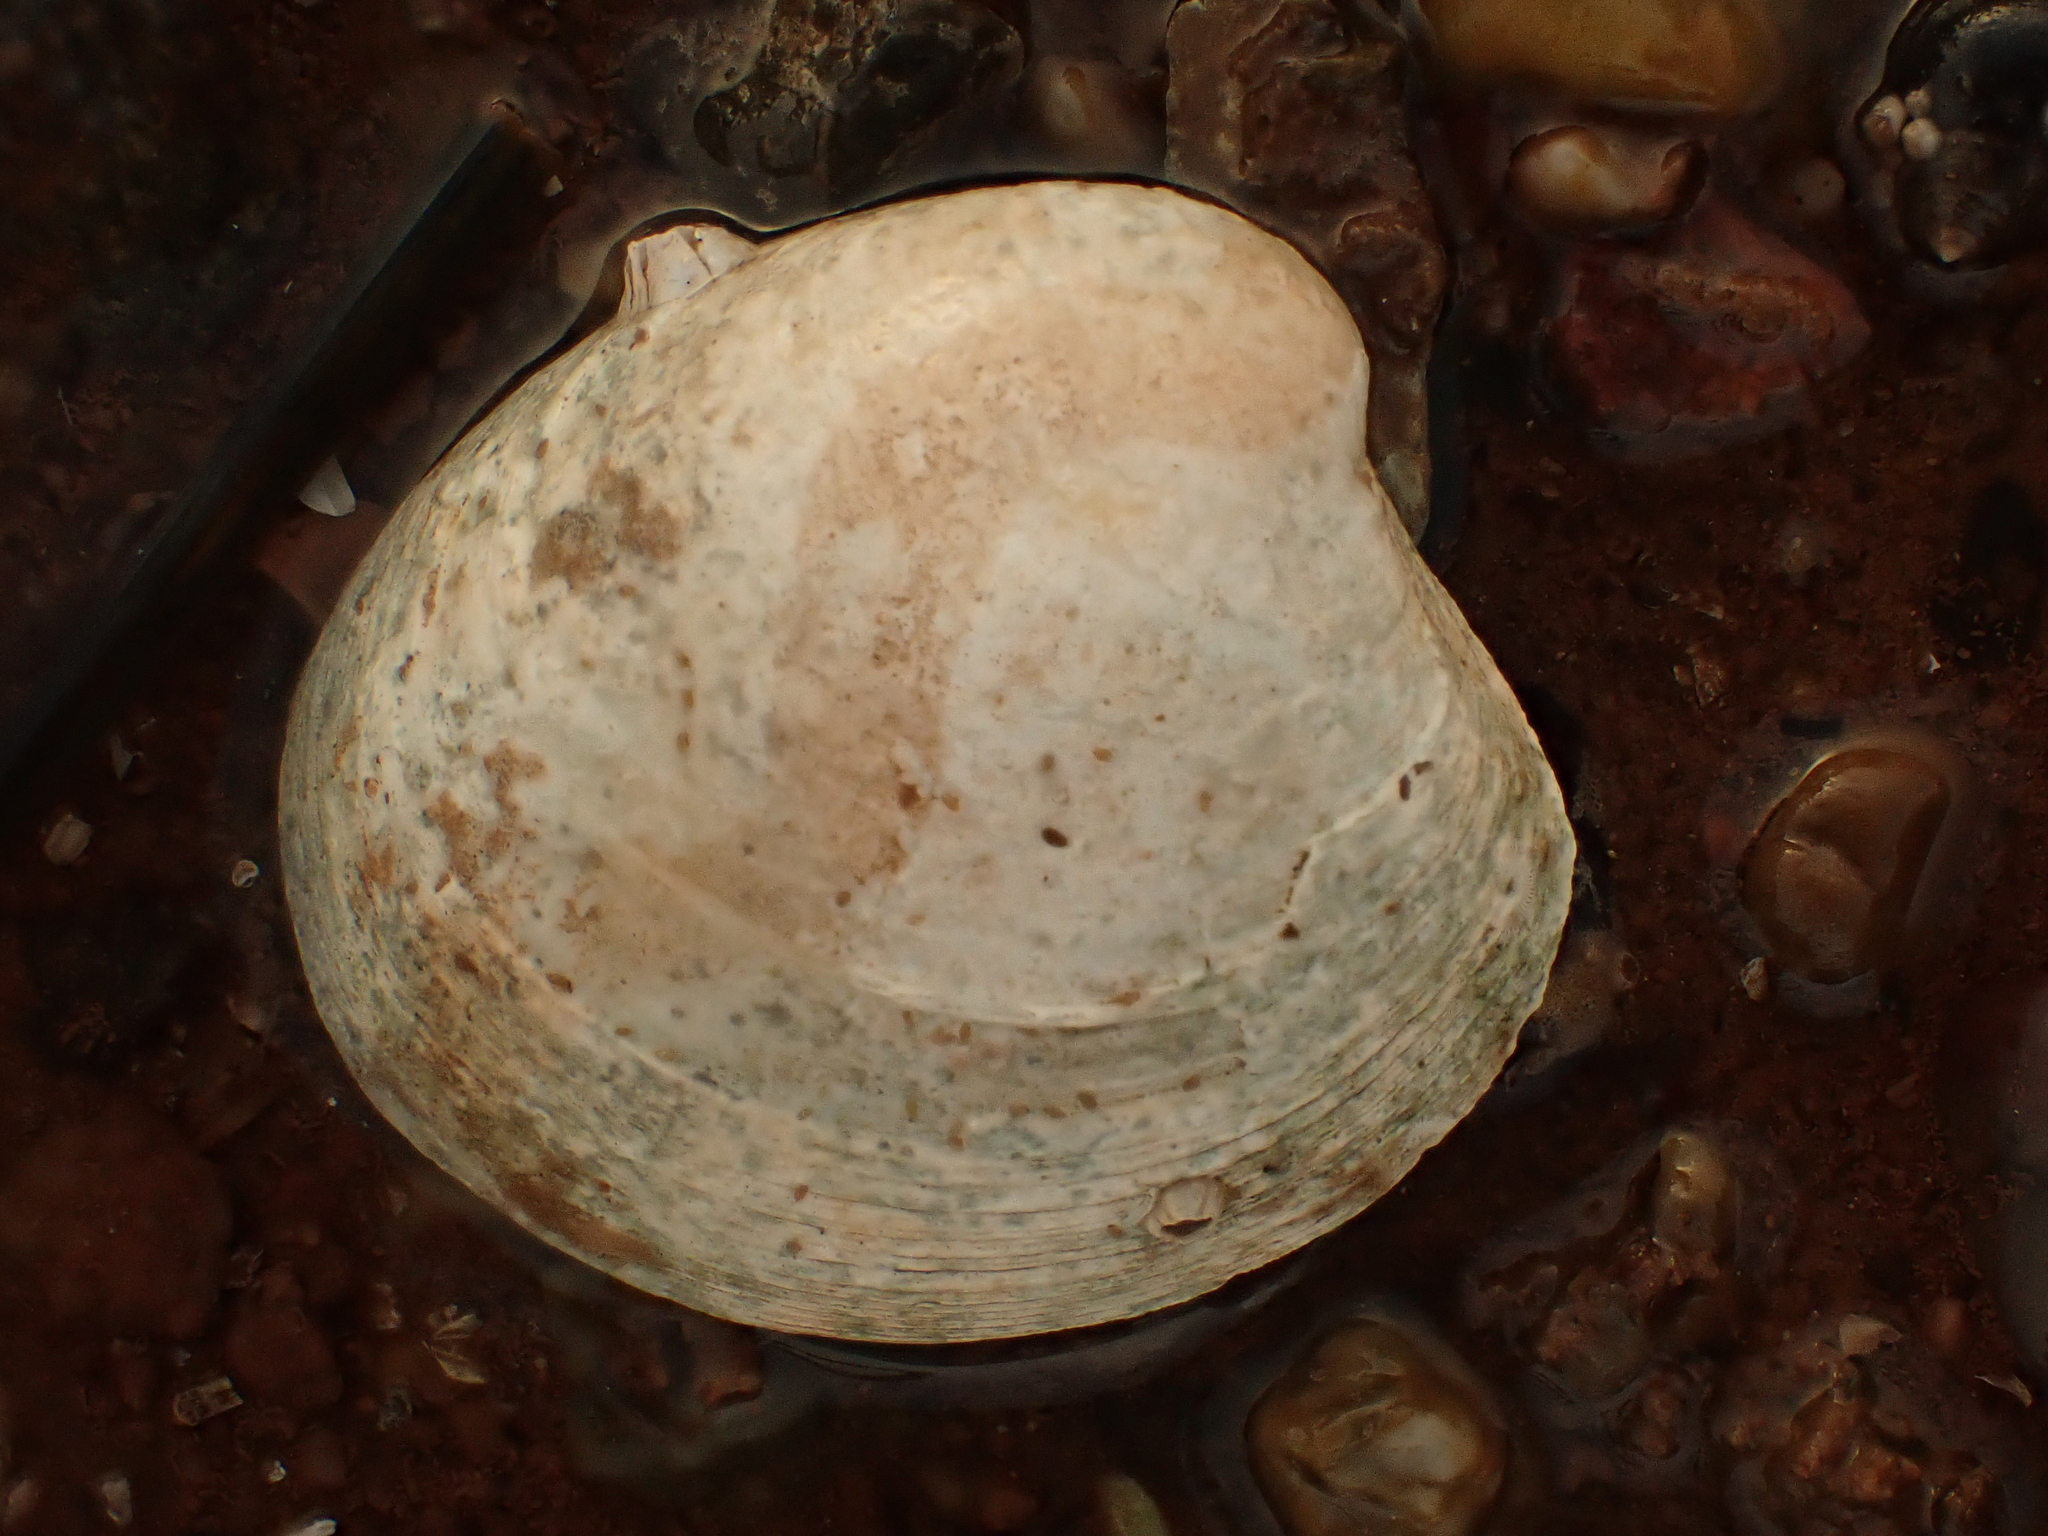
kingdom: Animalia
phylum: Mollusca
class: Bivalvia
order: Venerida
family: Veneridae
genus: Agriopoma
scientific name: Agriopoma morrhuanum
